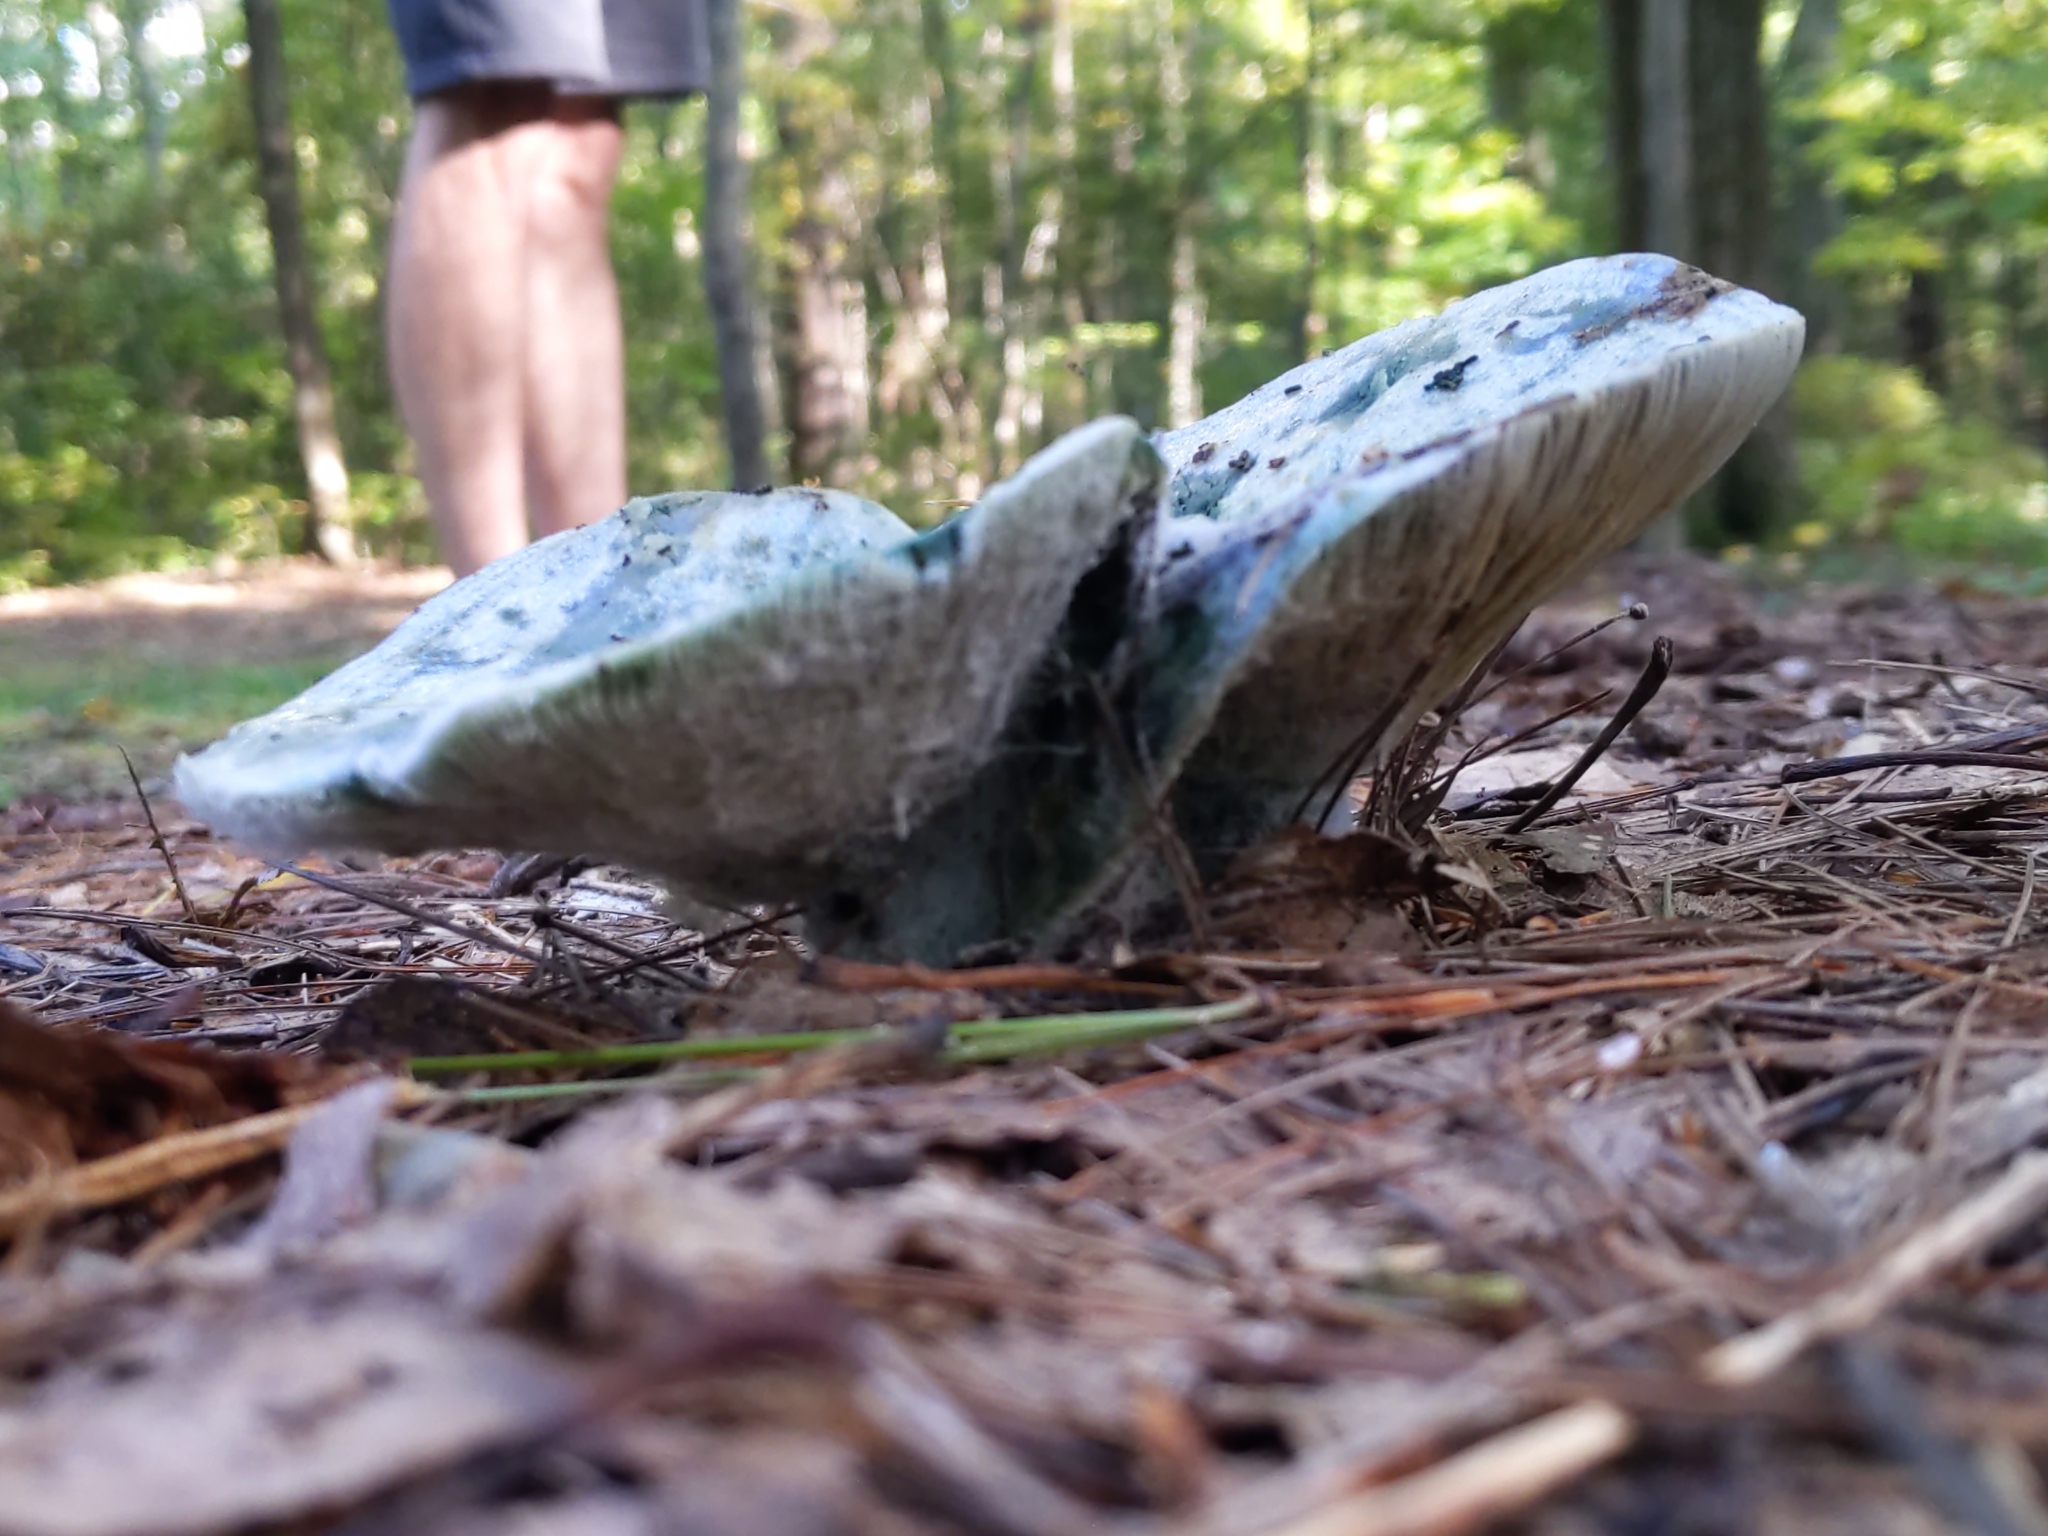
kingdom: Fungi
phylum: Basidiomycota
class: Agaricomycetes
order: Russulales
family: Russulaceae
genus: Lactarius
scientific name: Lactarius indigo
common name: Indigo milk cap
